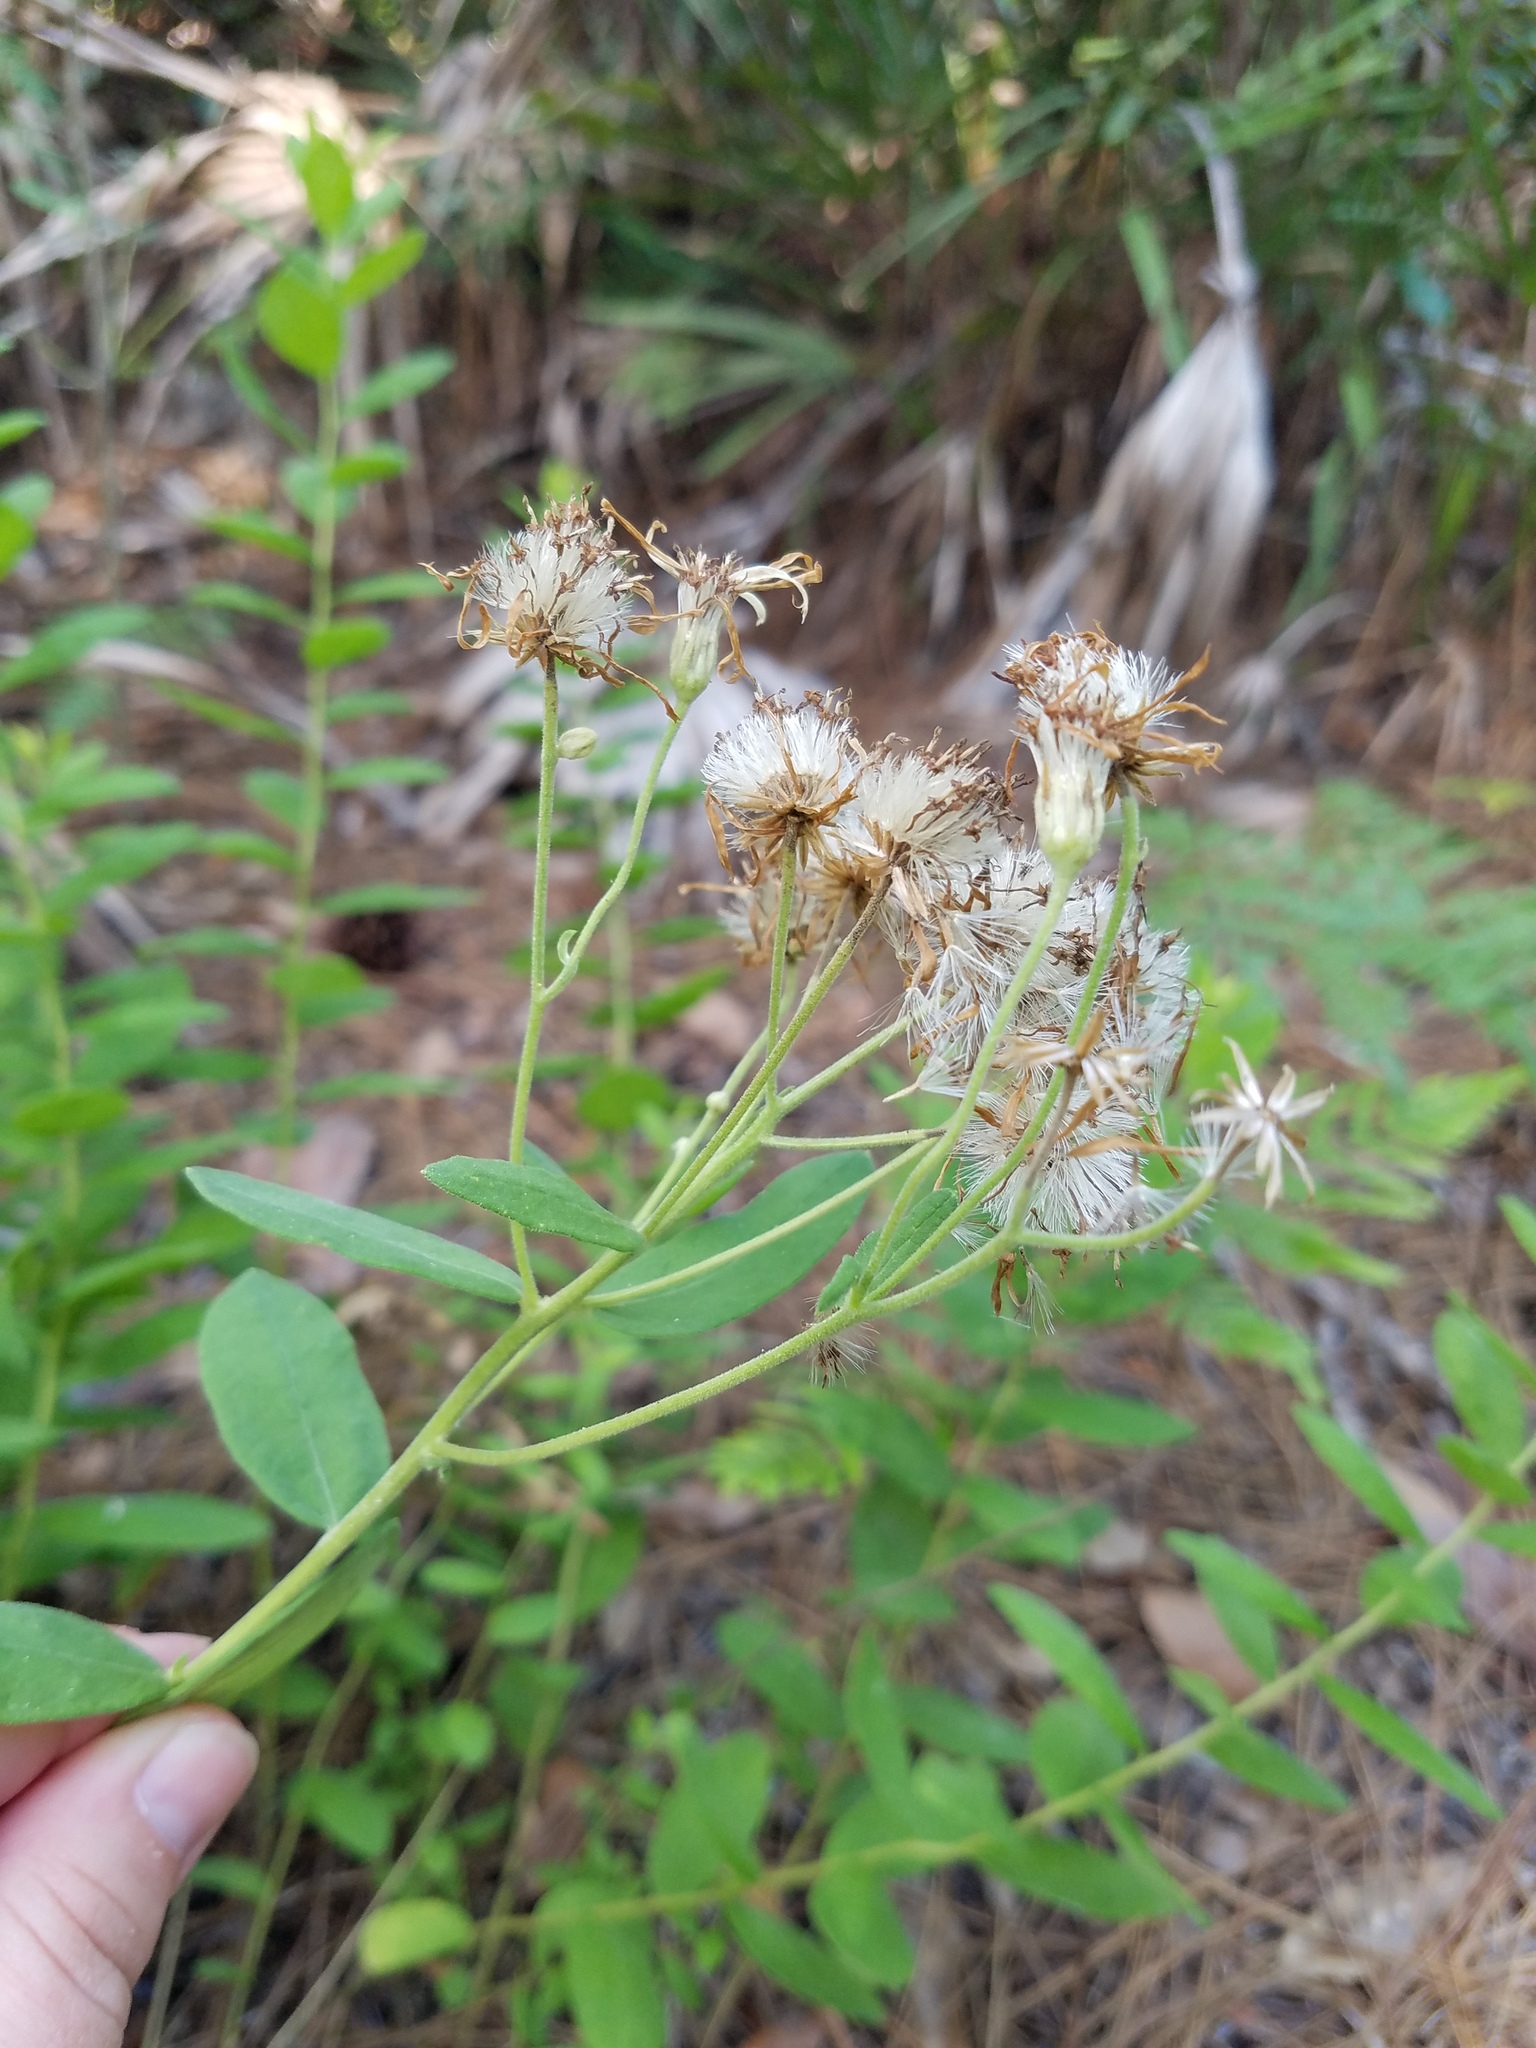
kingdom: Plantae
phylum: Tracheophyta
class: Magnoliopsida
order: Asterales
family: Asteraceae
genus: Oclemena
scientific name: Oclemena reticulata
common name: Pinebarren aster
